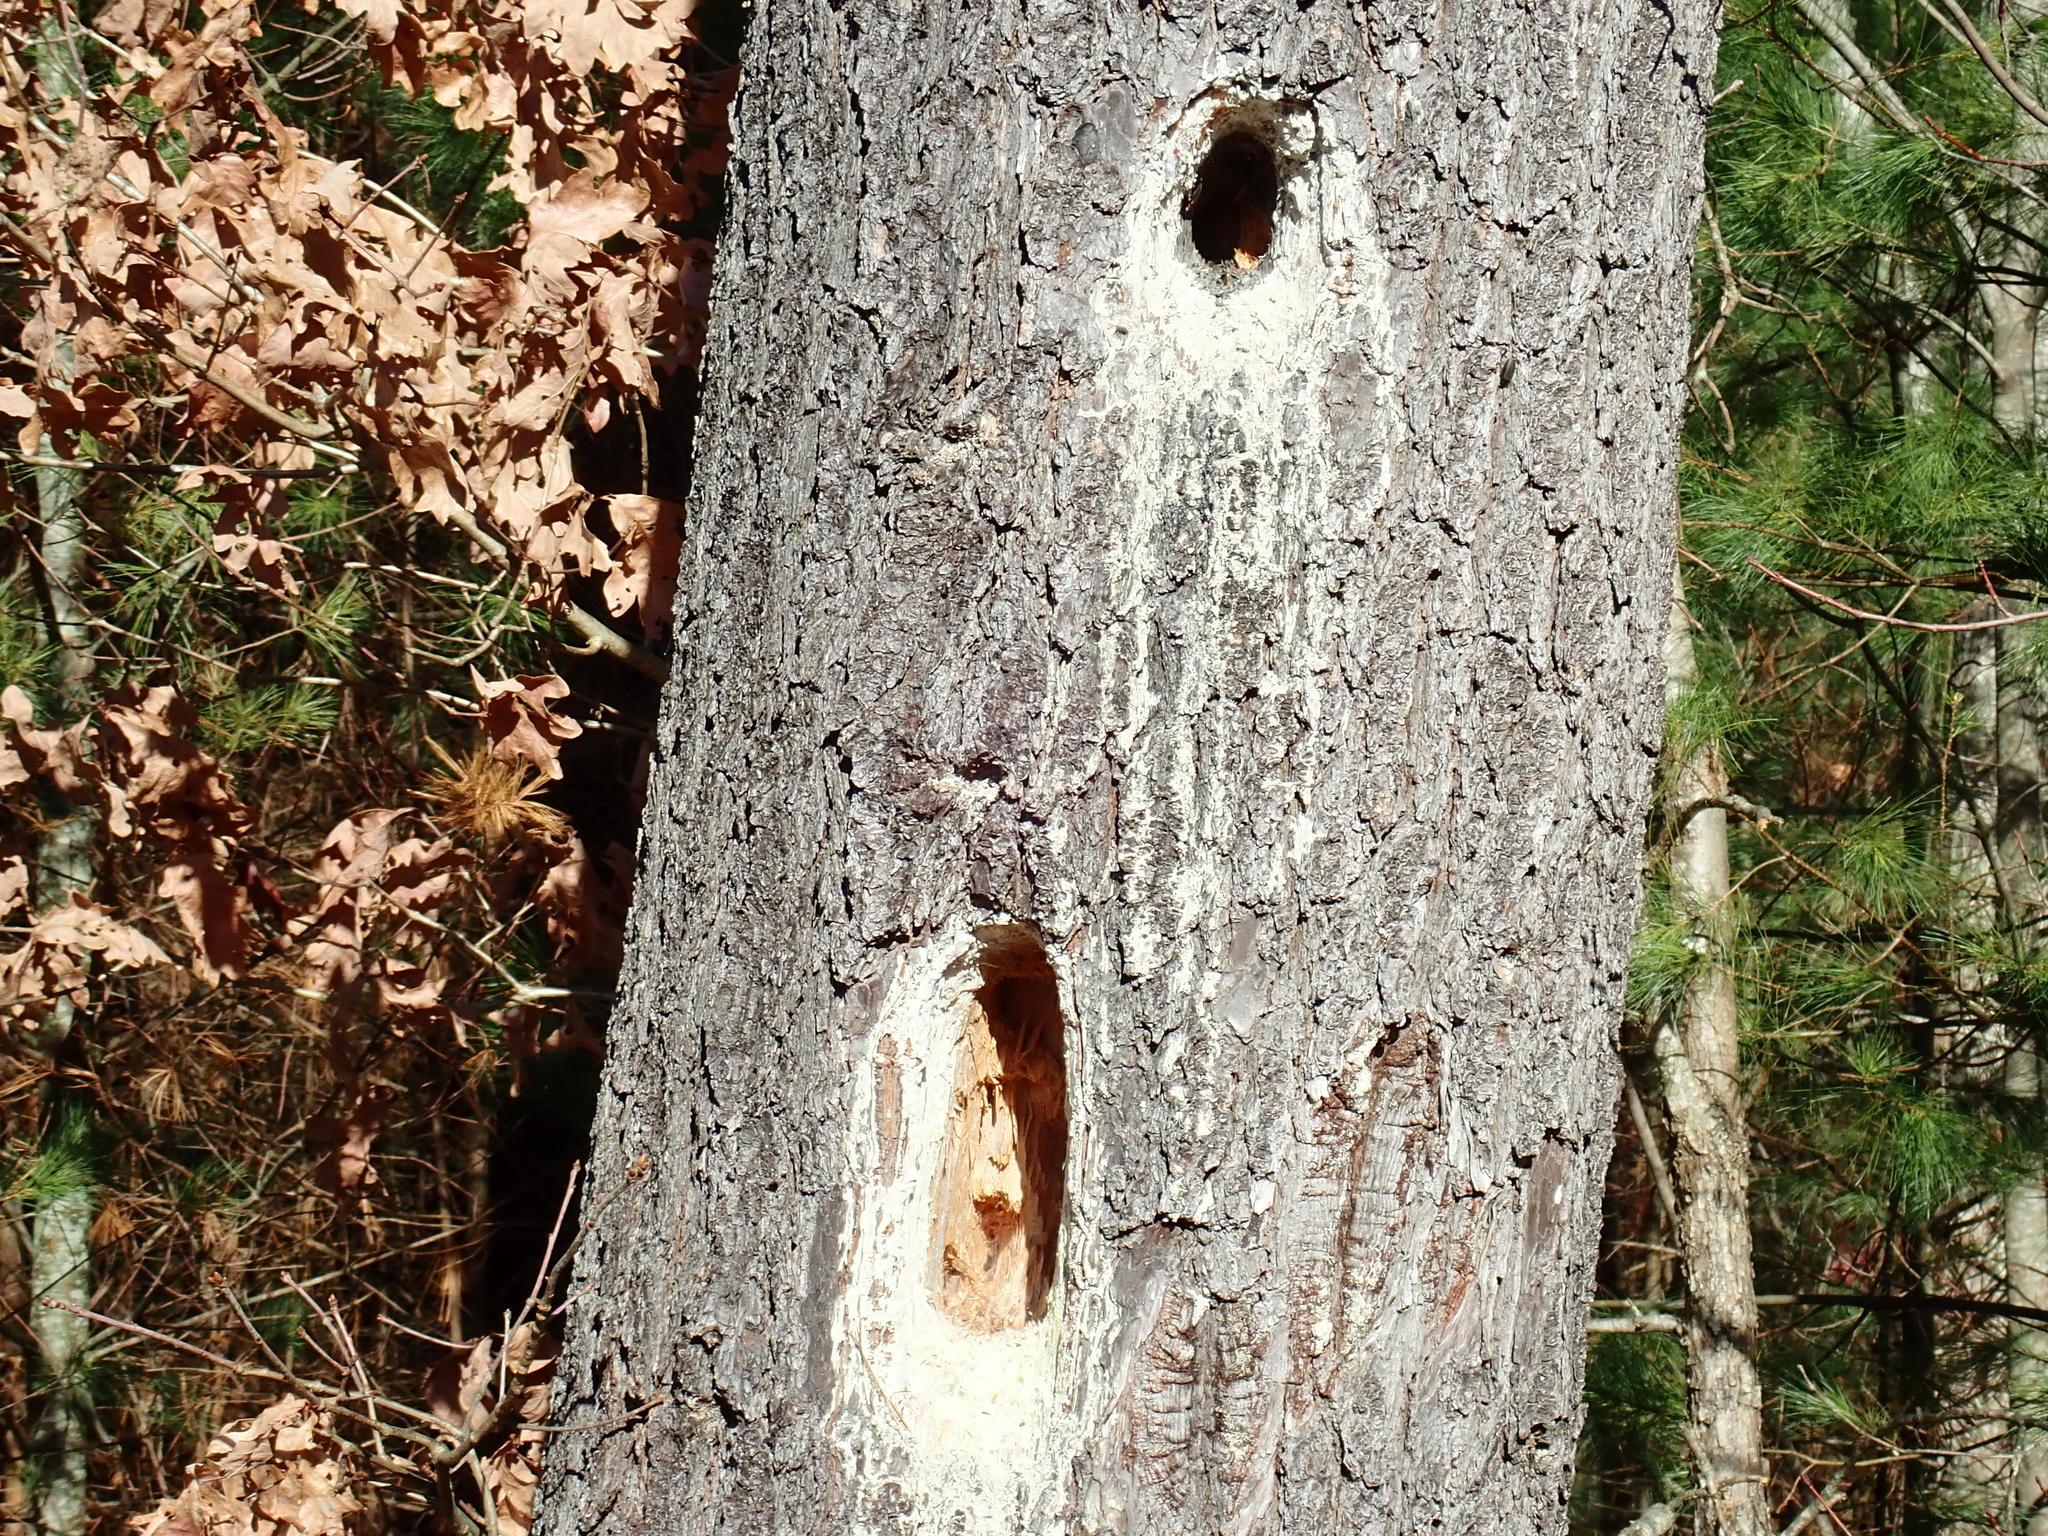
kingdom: Animalia
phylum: Chordata
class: Aves
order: Piciformes
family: Picidae
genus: Dryocopus
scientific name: Dryocopus pileatus
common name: Pileated woodpecker
